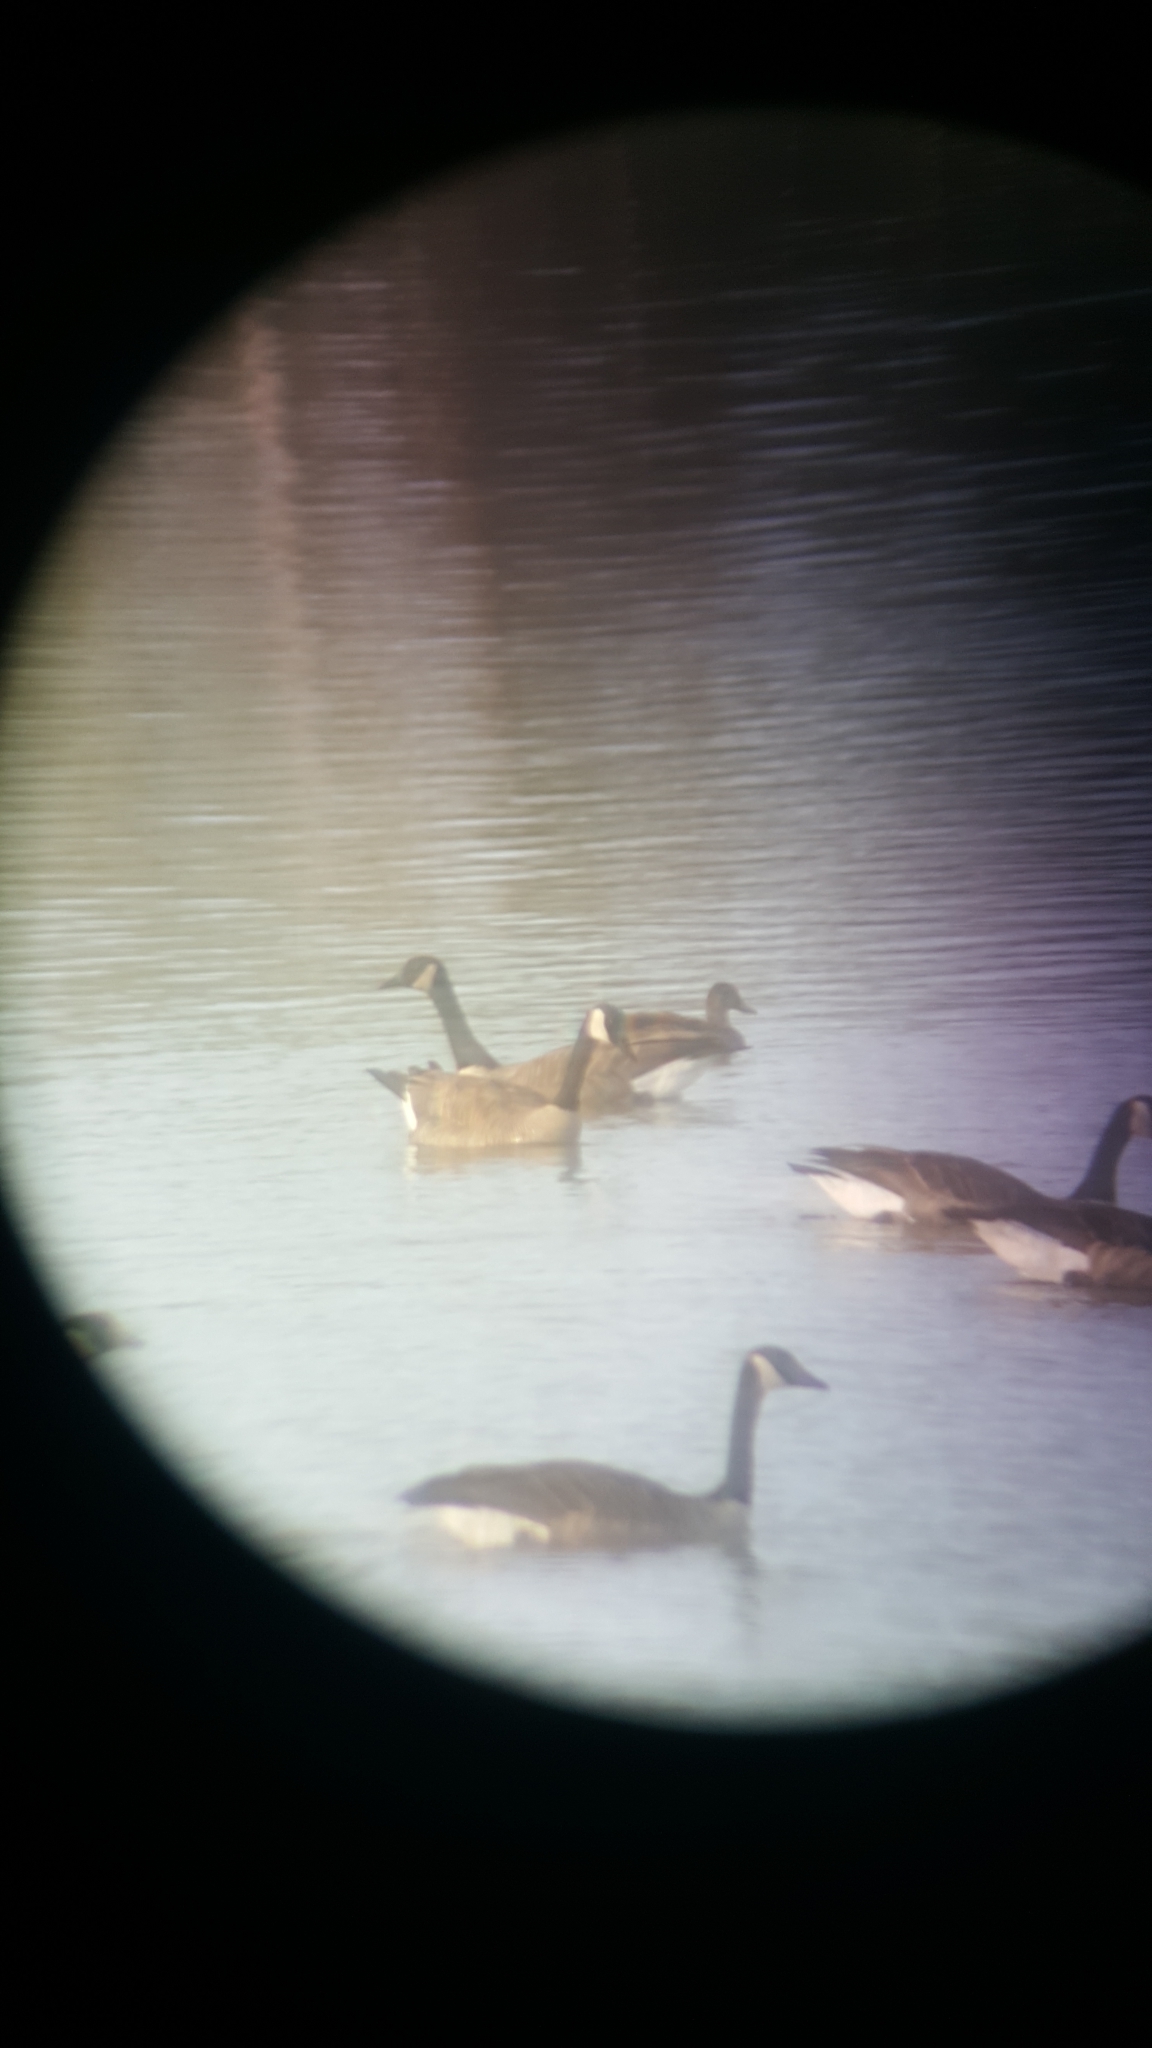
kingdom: Animalia
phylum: Chordata
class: Aves
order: Anseriformes
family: Anatidae
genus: Branta
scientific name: Branta canadensis
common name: Canada goose
